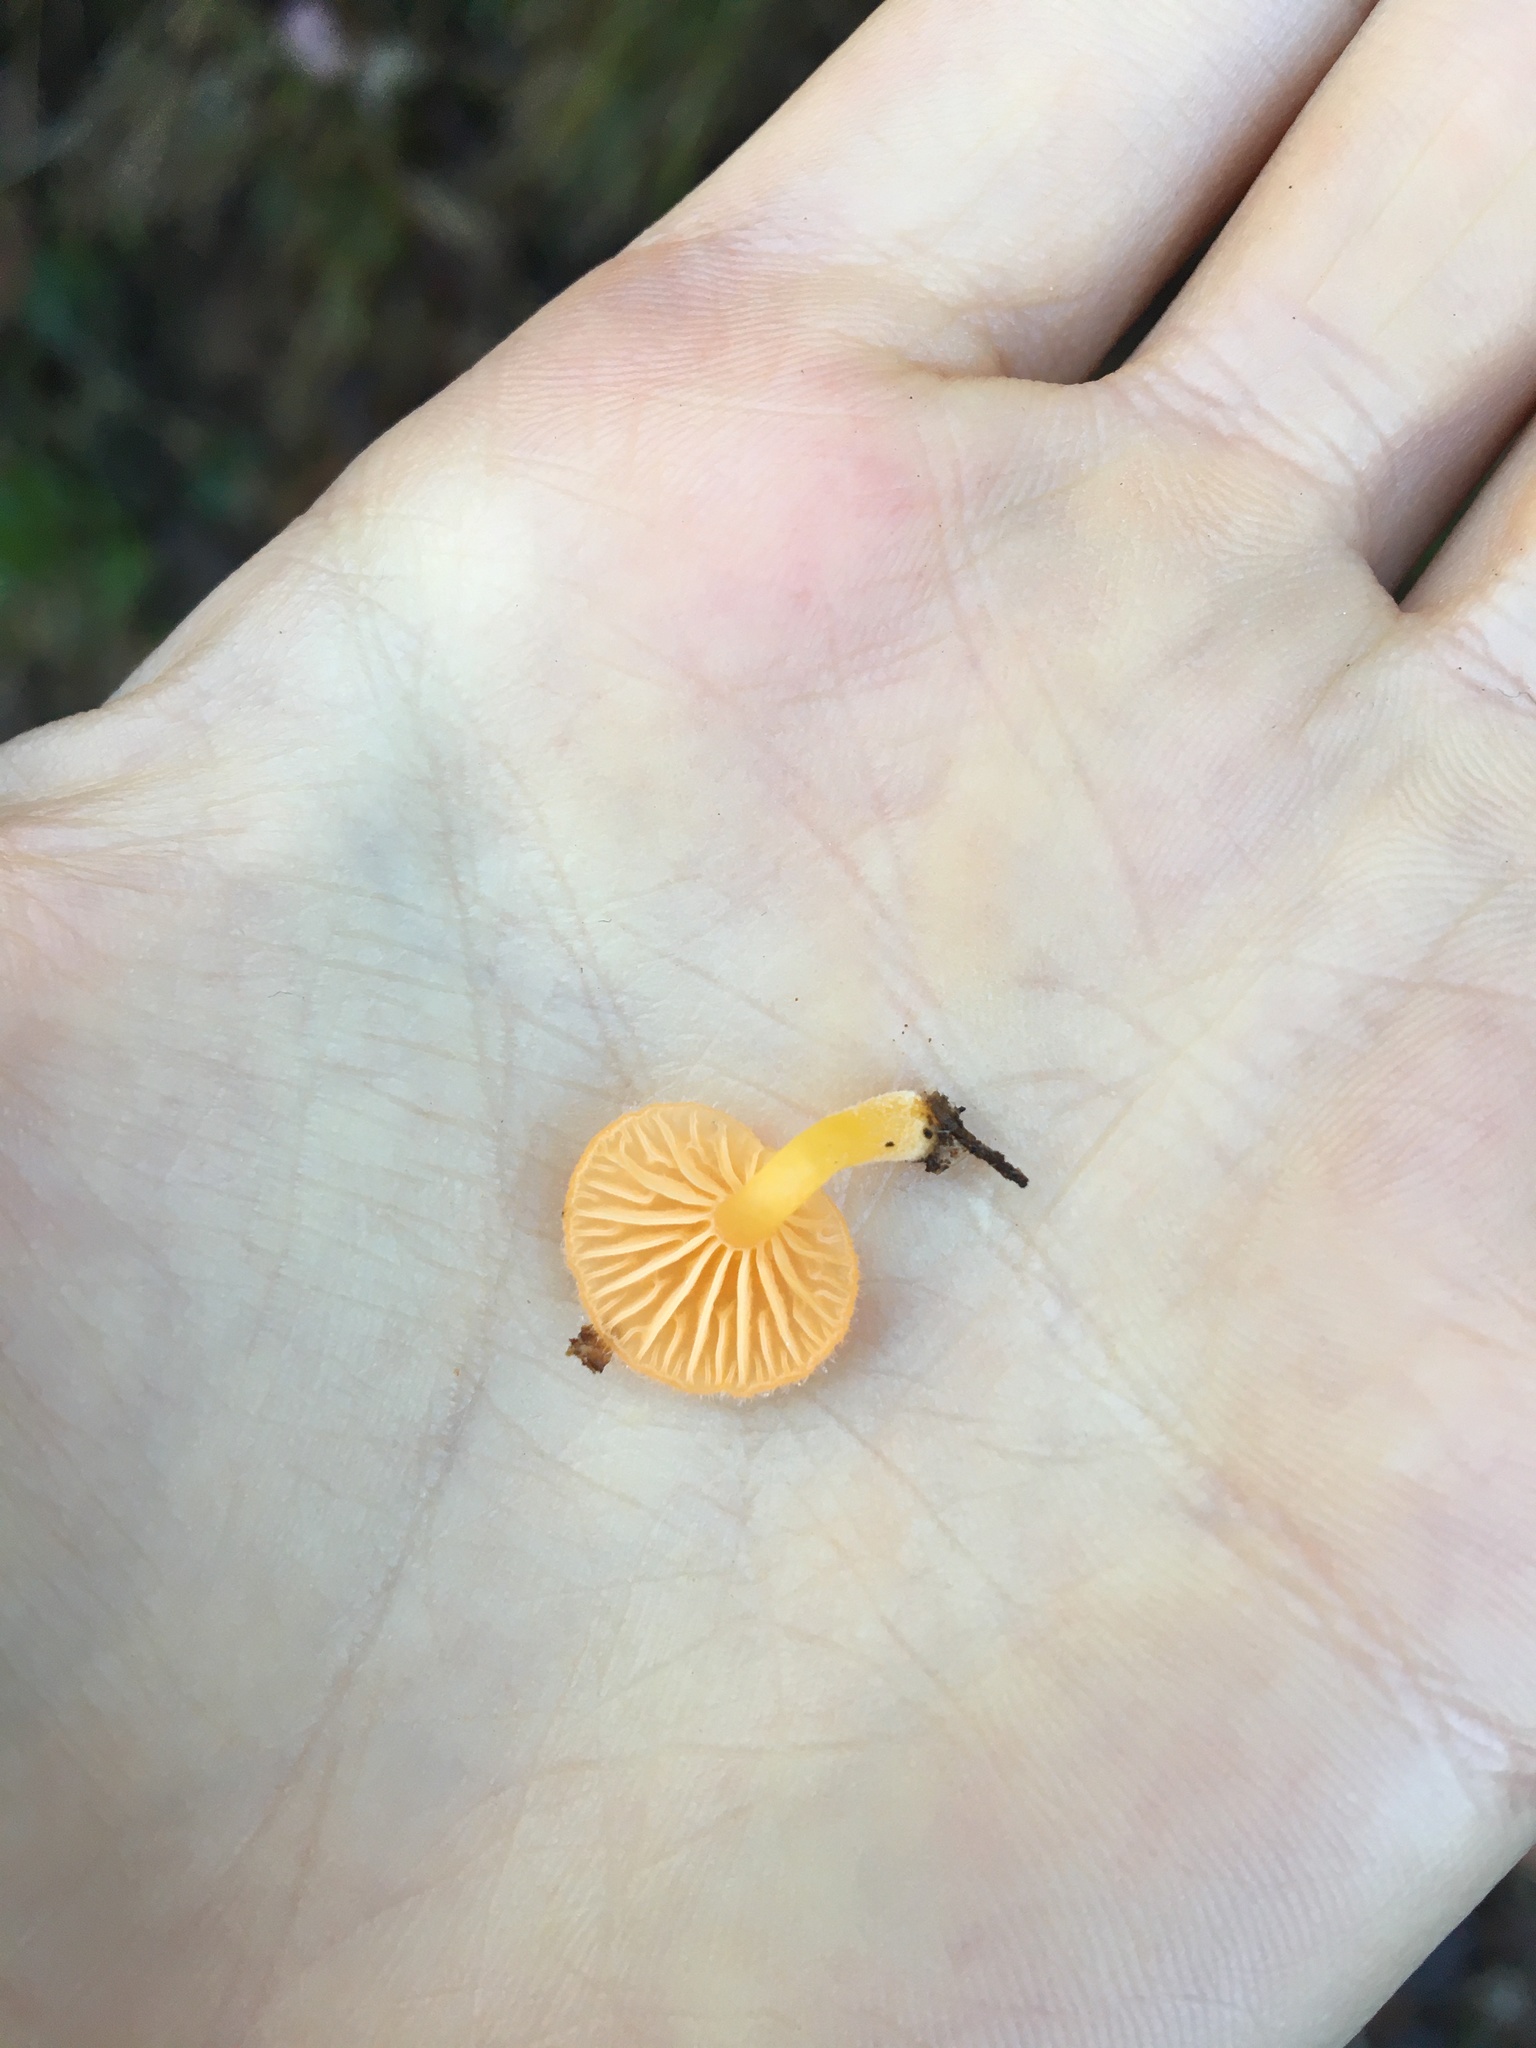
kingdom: Fungi
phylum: Basidiomycota
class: Agaricomycetes
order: Agaricales
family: Hygrophoraceae
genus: Chrysomphalina
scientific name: Chrysomphalina aurantiaca
